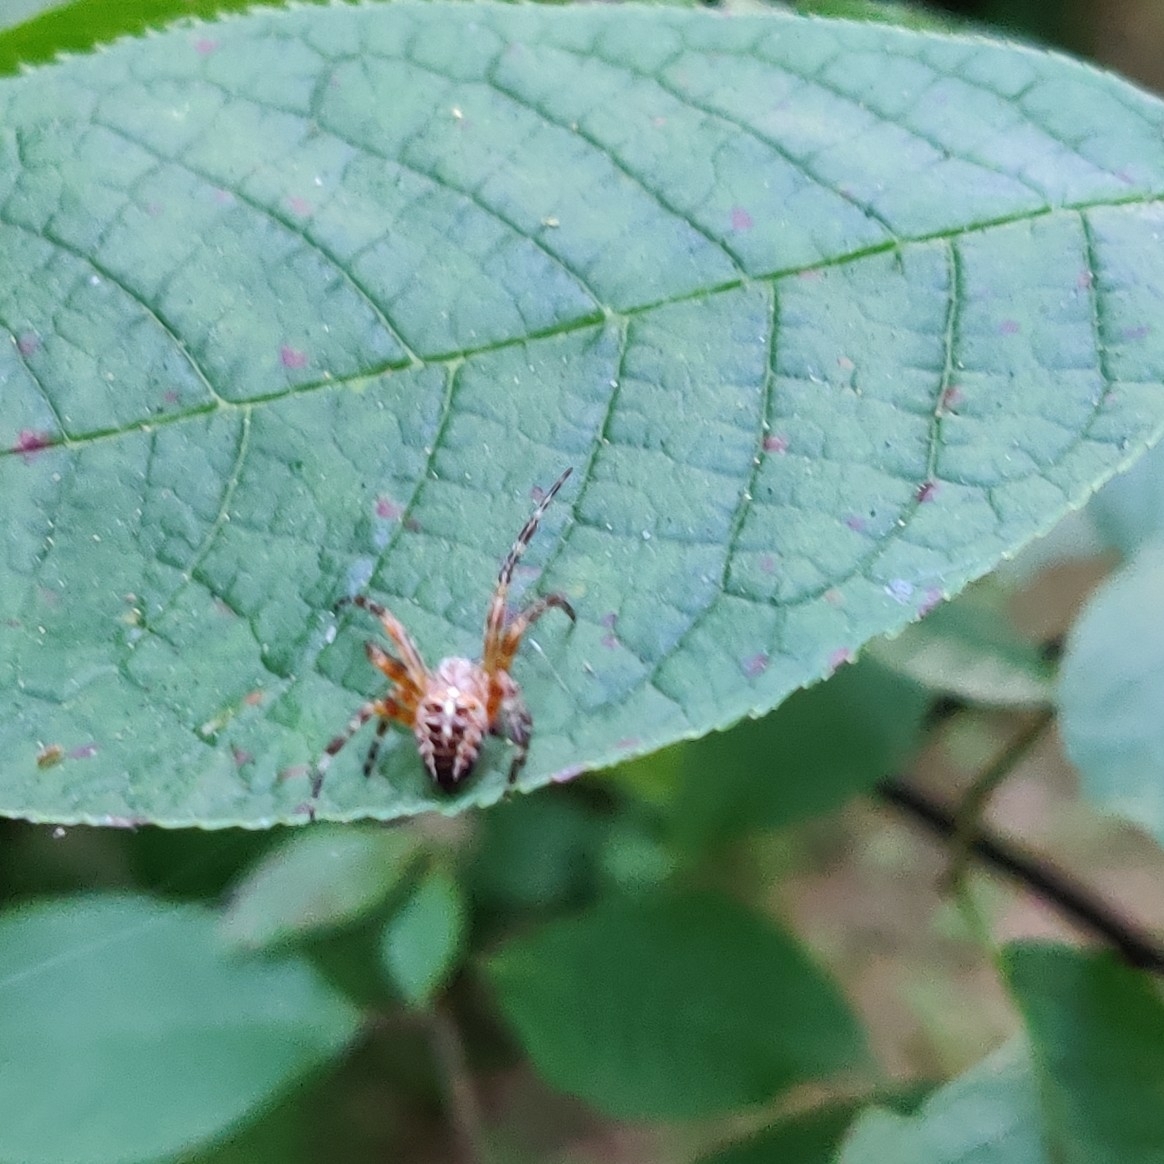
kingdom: Animalia
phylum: Arthropoda
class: Arachnida
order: Araneae
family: Araneidae
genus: Araneus
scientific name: Araneus diadematus
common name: Cross orbweaver
